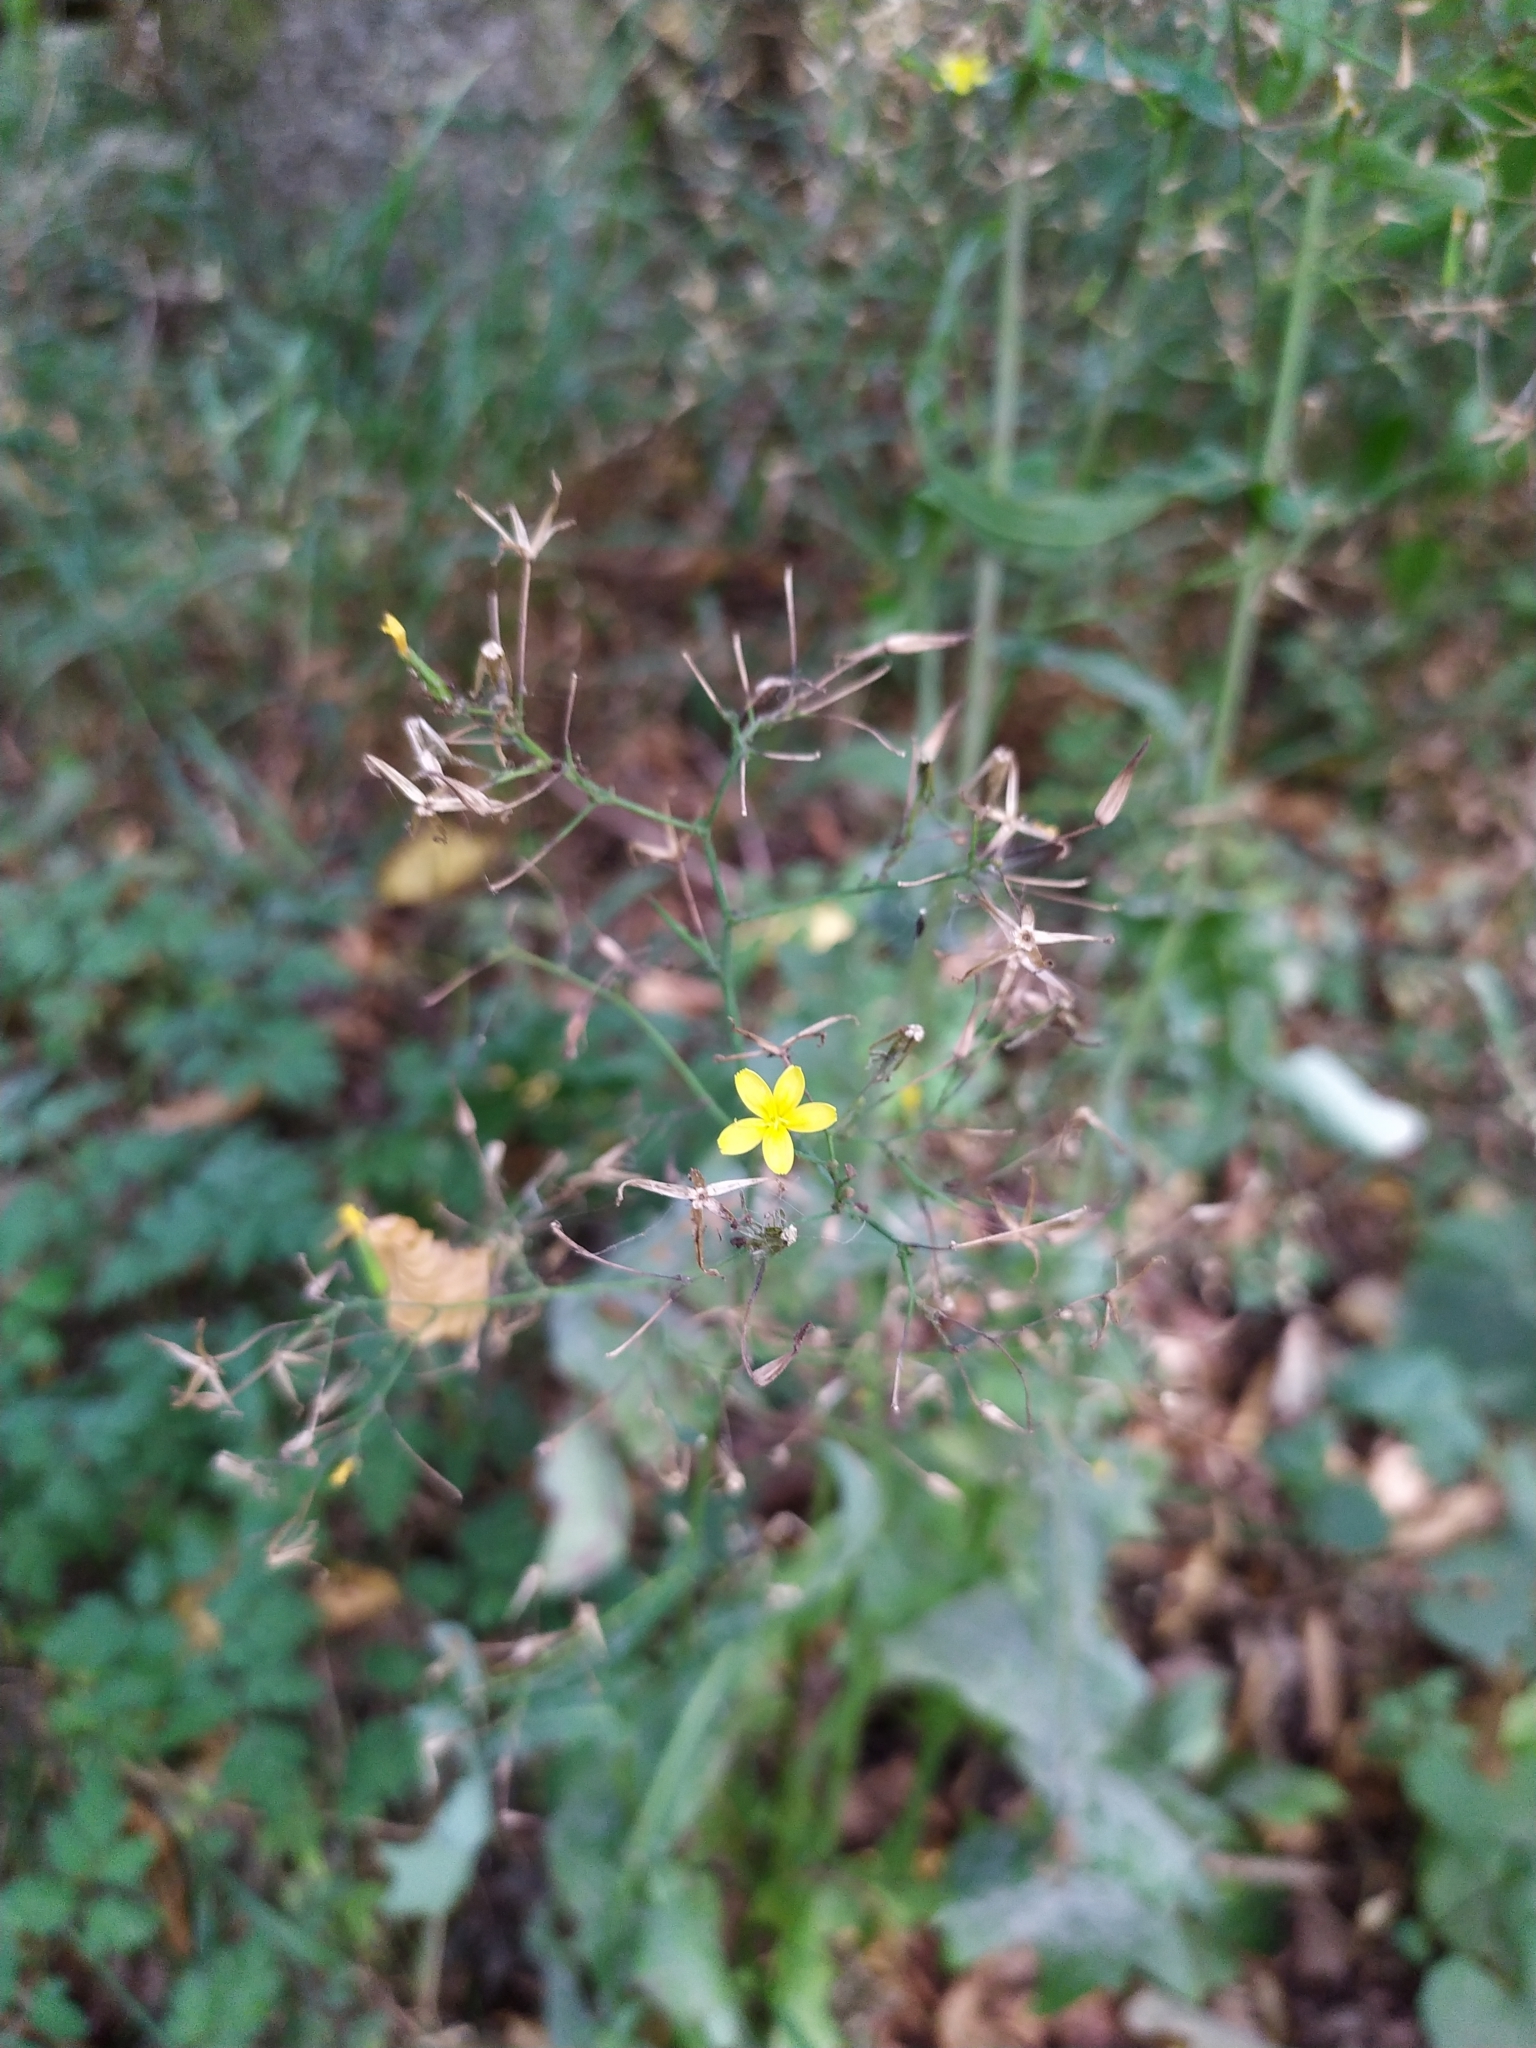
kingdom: Plantae
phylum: Tracheophyta
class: Magnoliopsida
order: Asterales
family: Asteraceae
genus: Mycelis
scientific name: Mycelis muralis
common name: Wall lettuce
